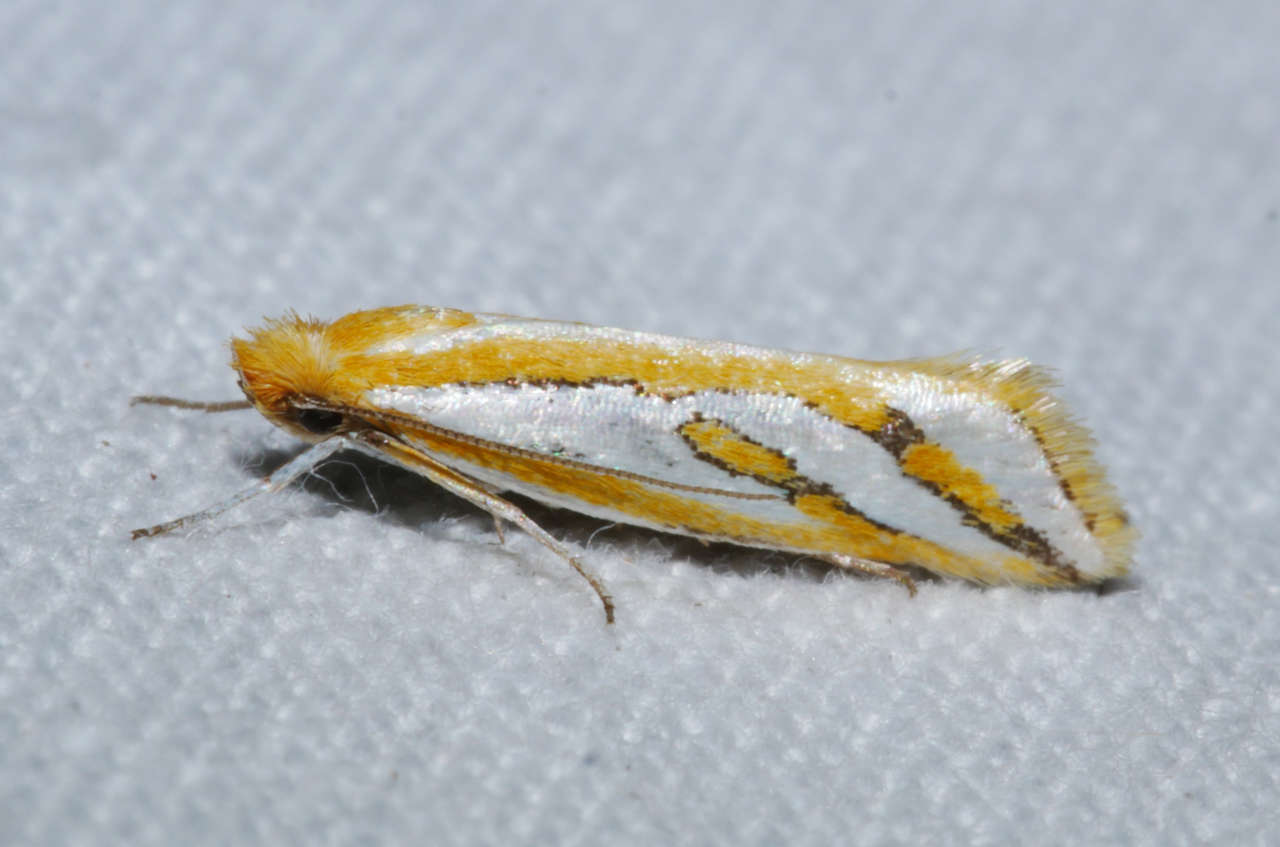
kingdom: Animalia
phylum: Arthropoda
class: Insecta
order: Lepidoptera
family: Depressariidae
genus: Thudaca
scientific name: Thudaca haplonota
